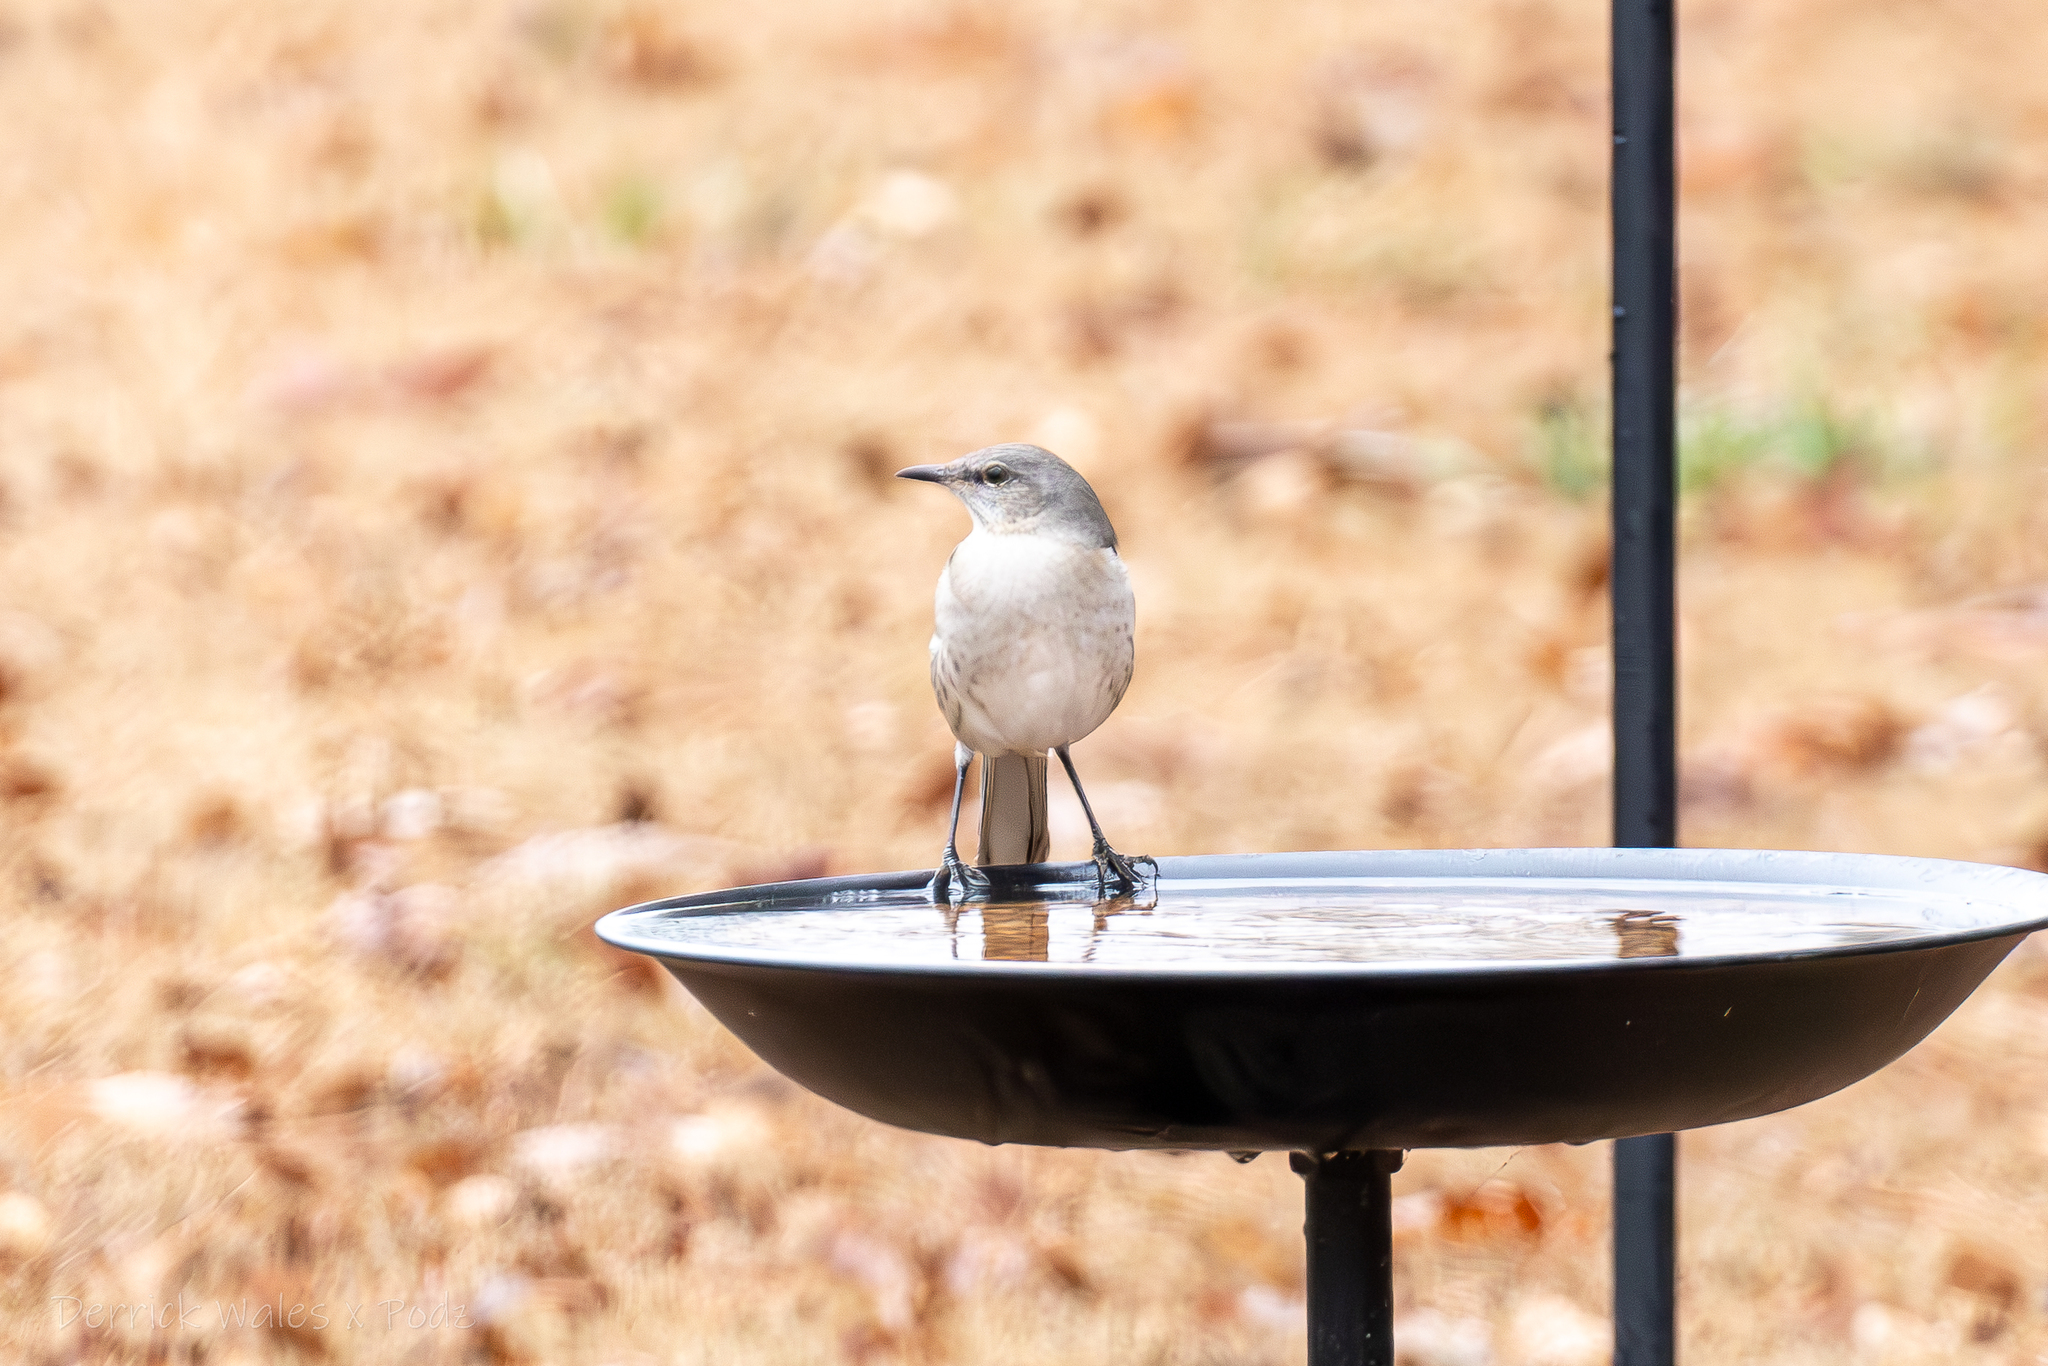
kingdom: Animalia
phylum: Chordata
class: Aves
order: Passeriformes
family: Mimidae
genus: Mimus
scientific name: Mimus polyglottos
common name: Northern mockingbird
